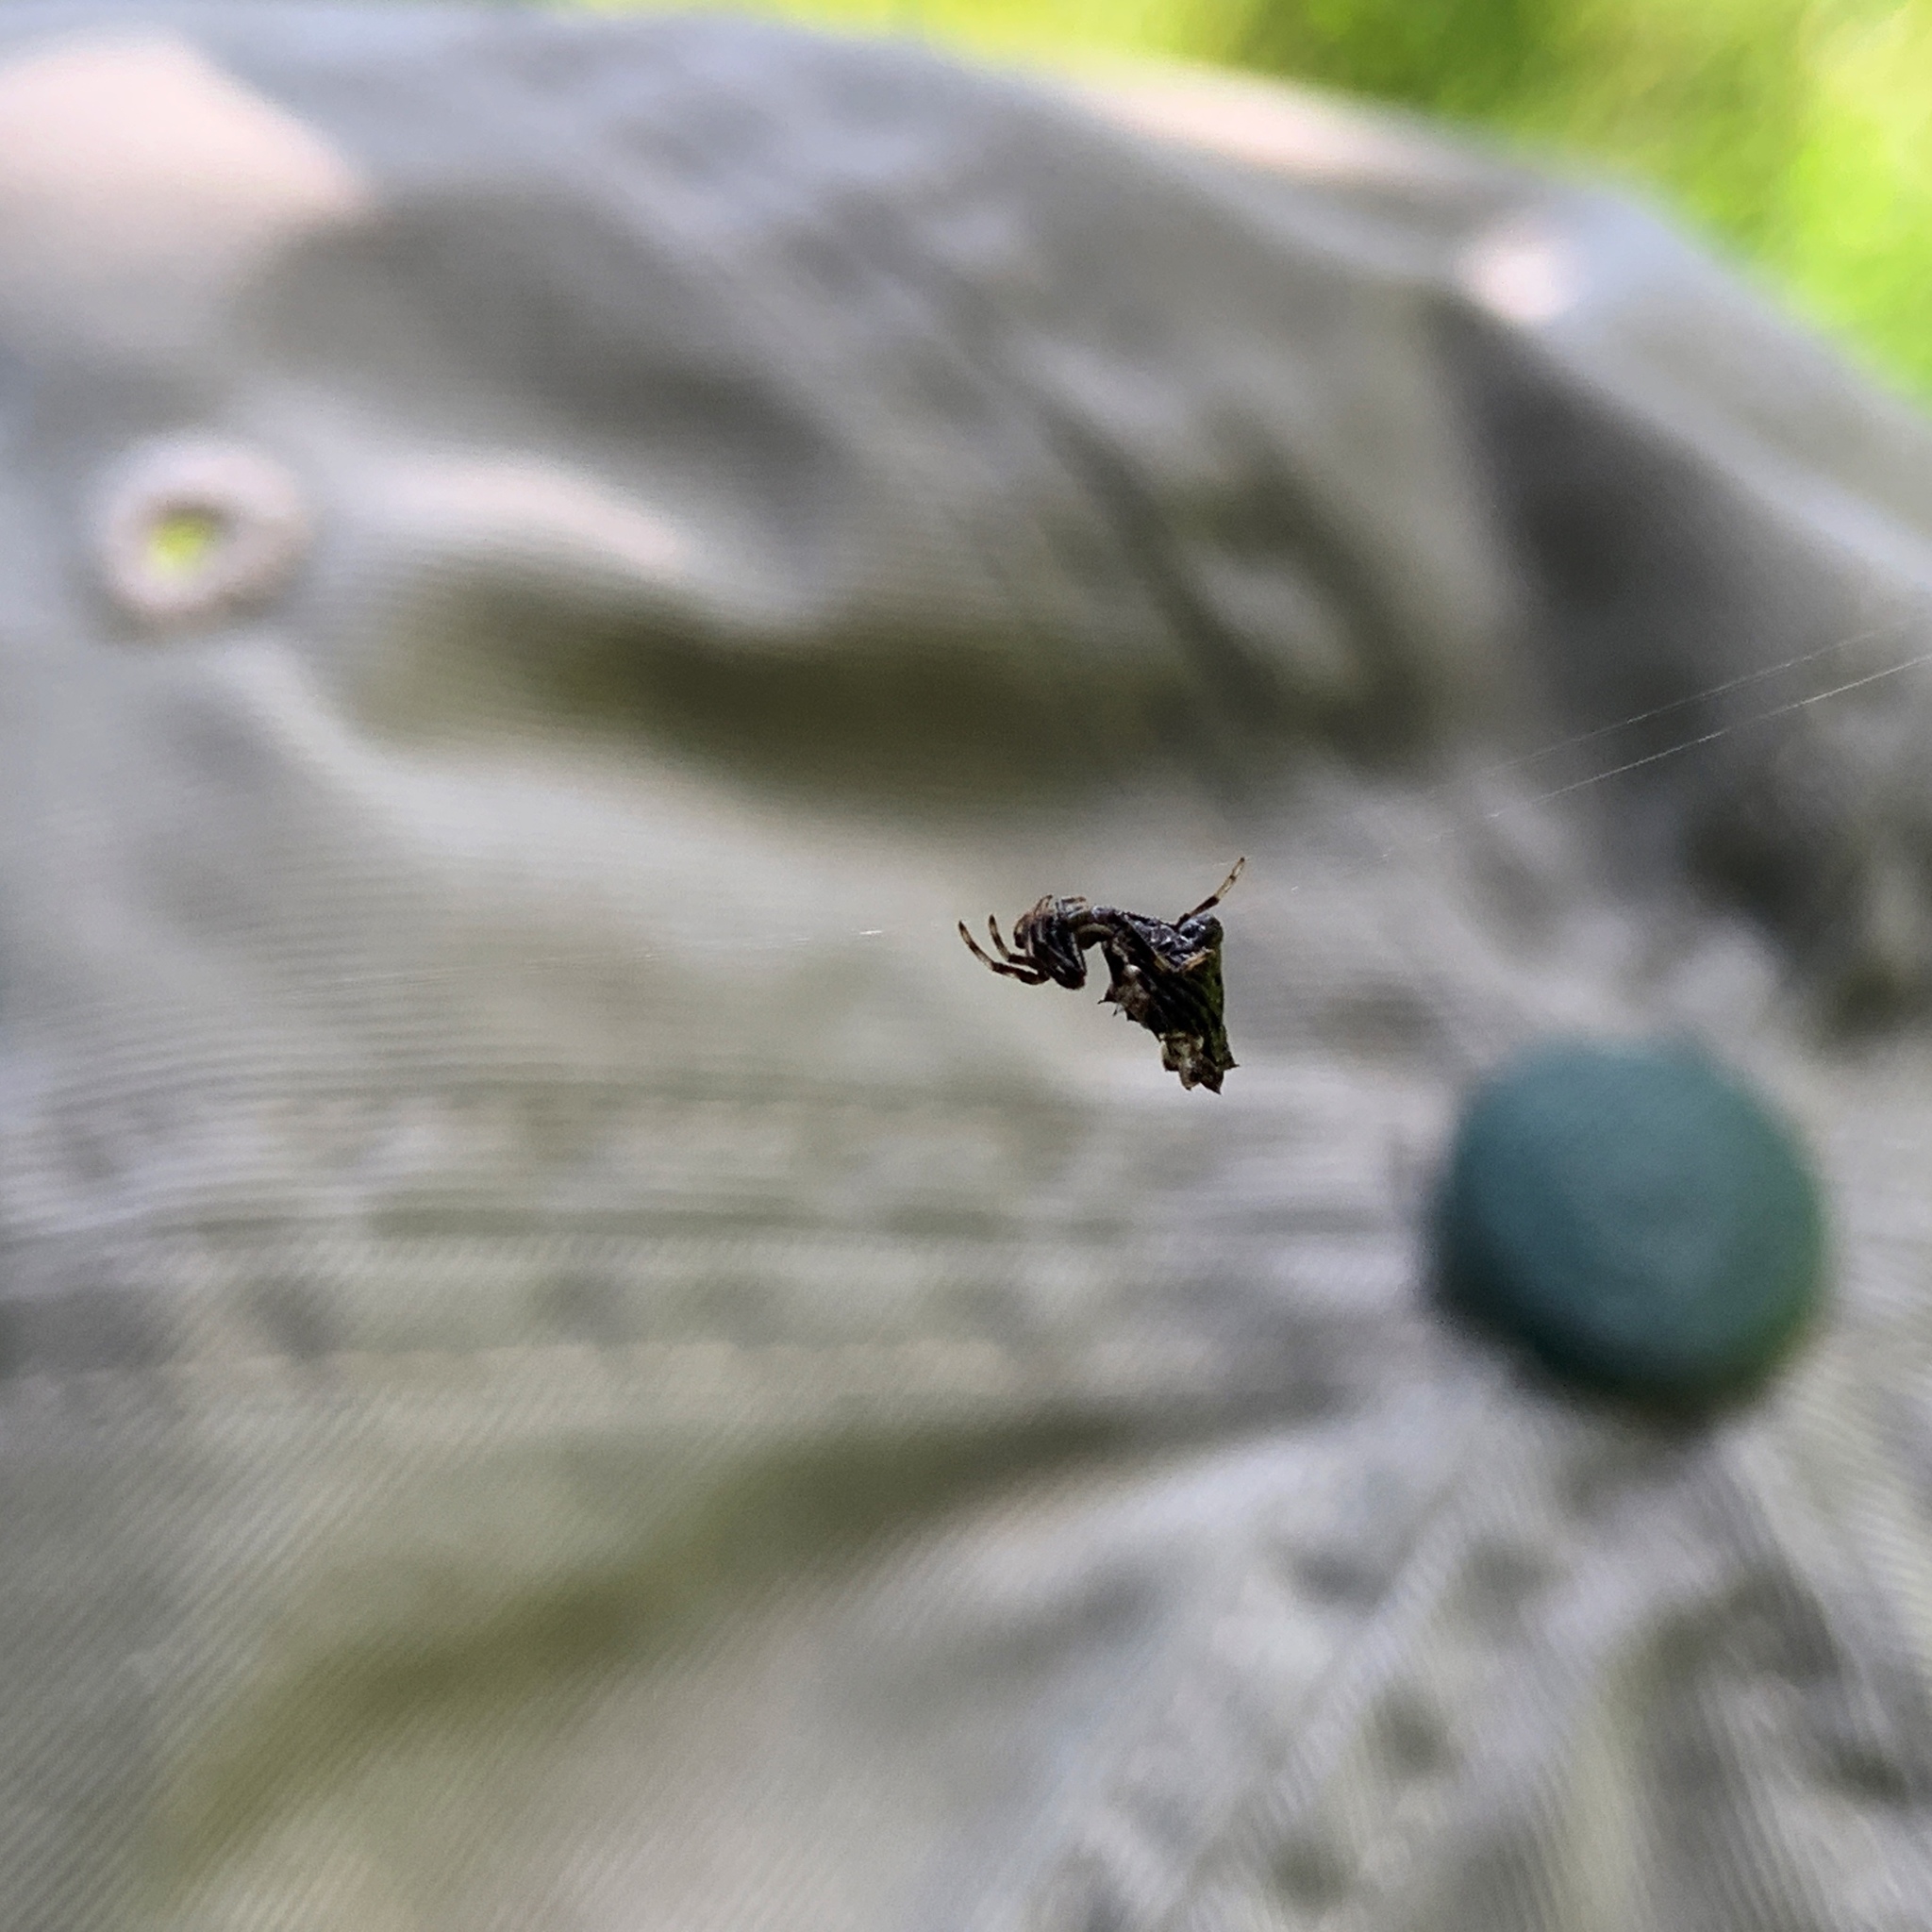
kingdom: Animalia
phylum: Arthropoda
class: Arachnida
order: Araneae
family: Araneidae
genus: Micrathena
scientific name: Micrathena gracilis
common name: Orb weavers
